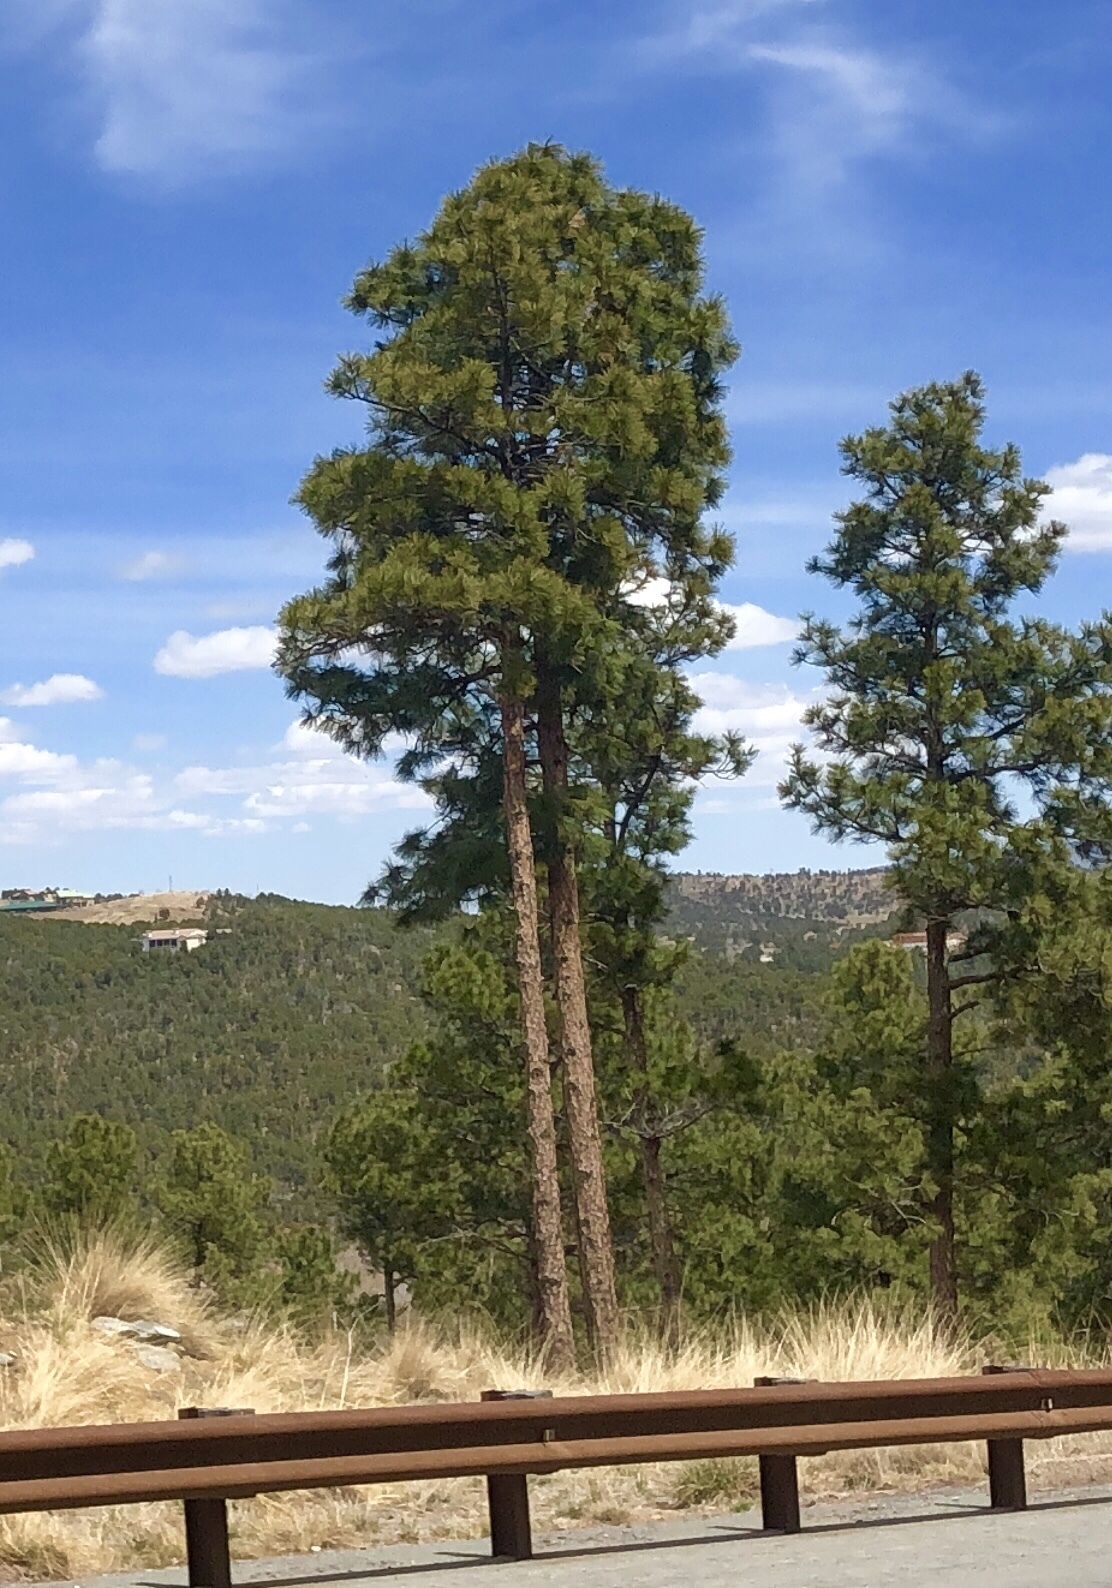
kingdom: Plantae
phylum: Tracheophyta
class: Pinopsida
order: Pinales
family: Pinaceae
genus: Pinus
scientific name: Pinus ponderosa
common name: Western yellow-pine
